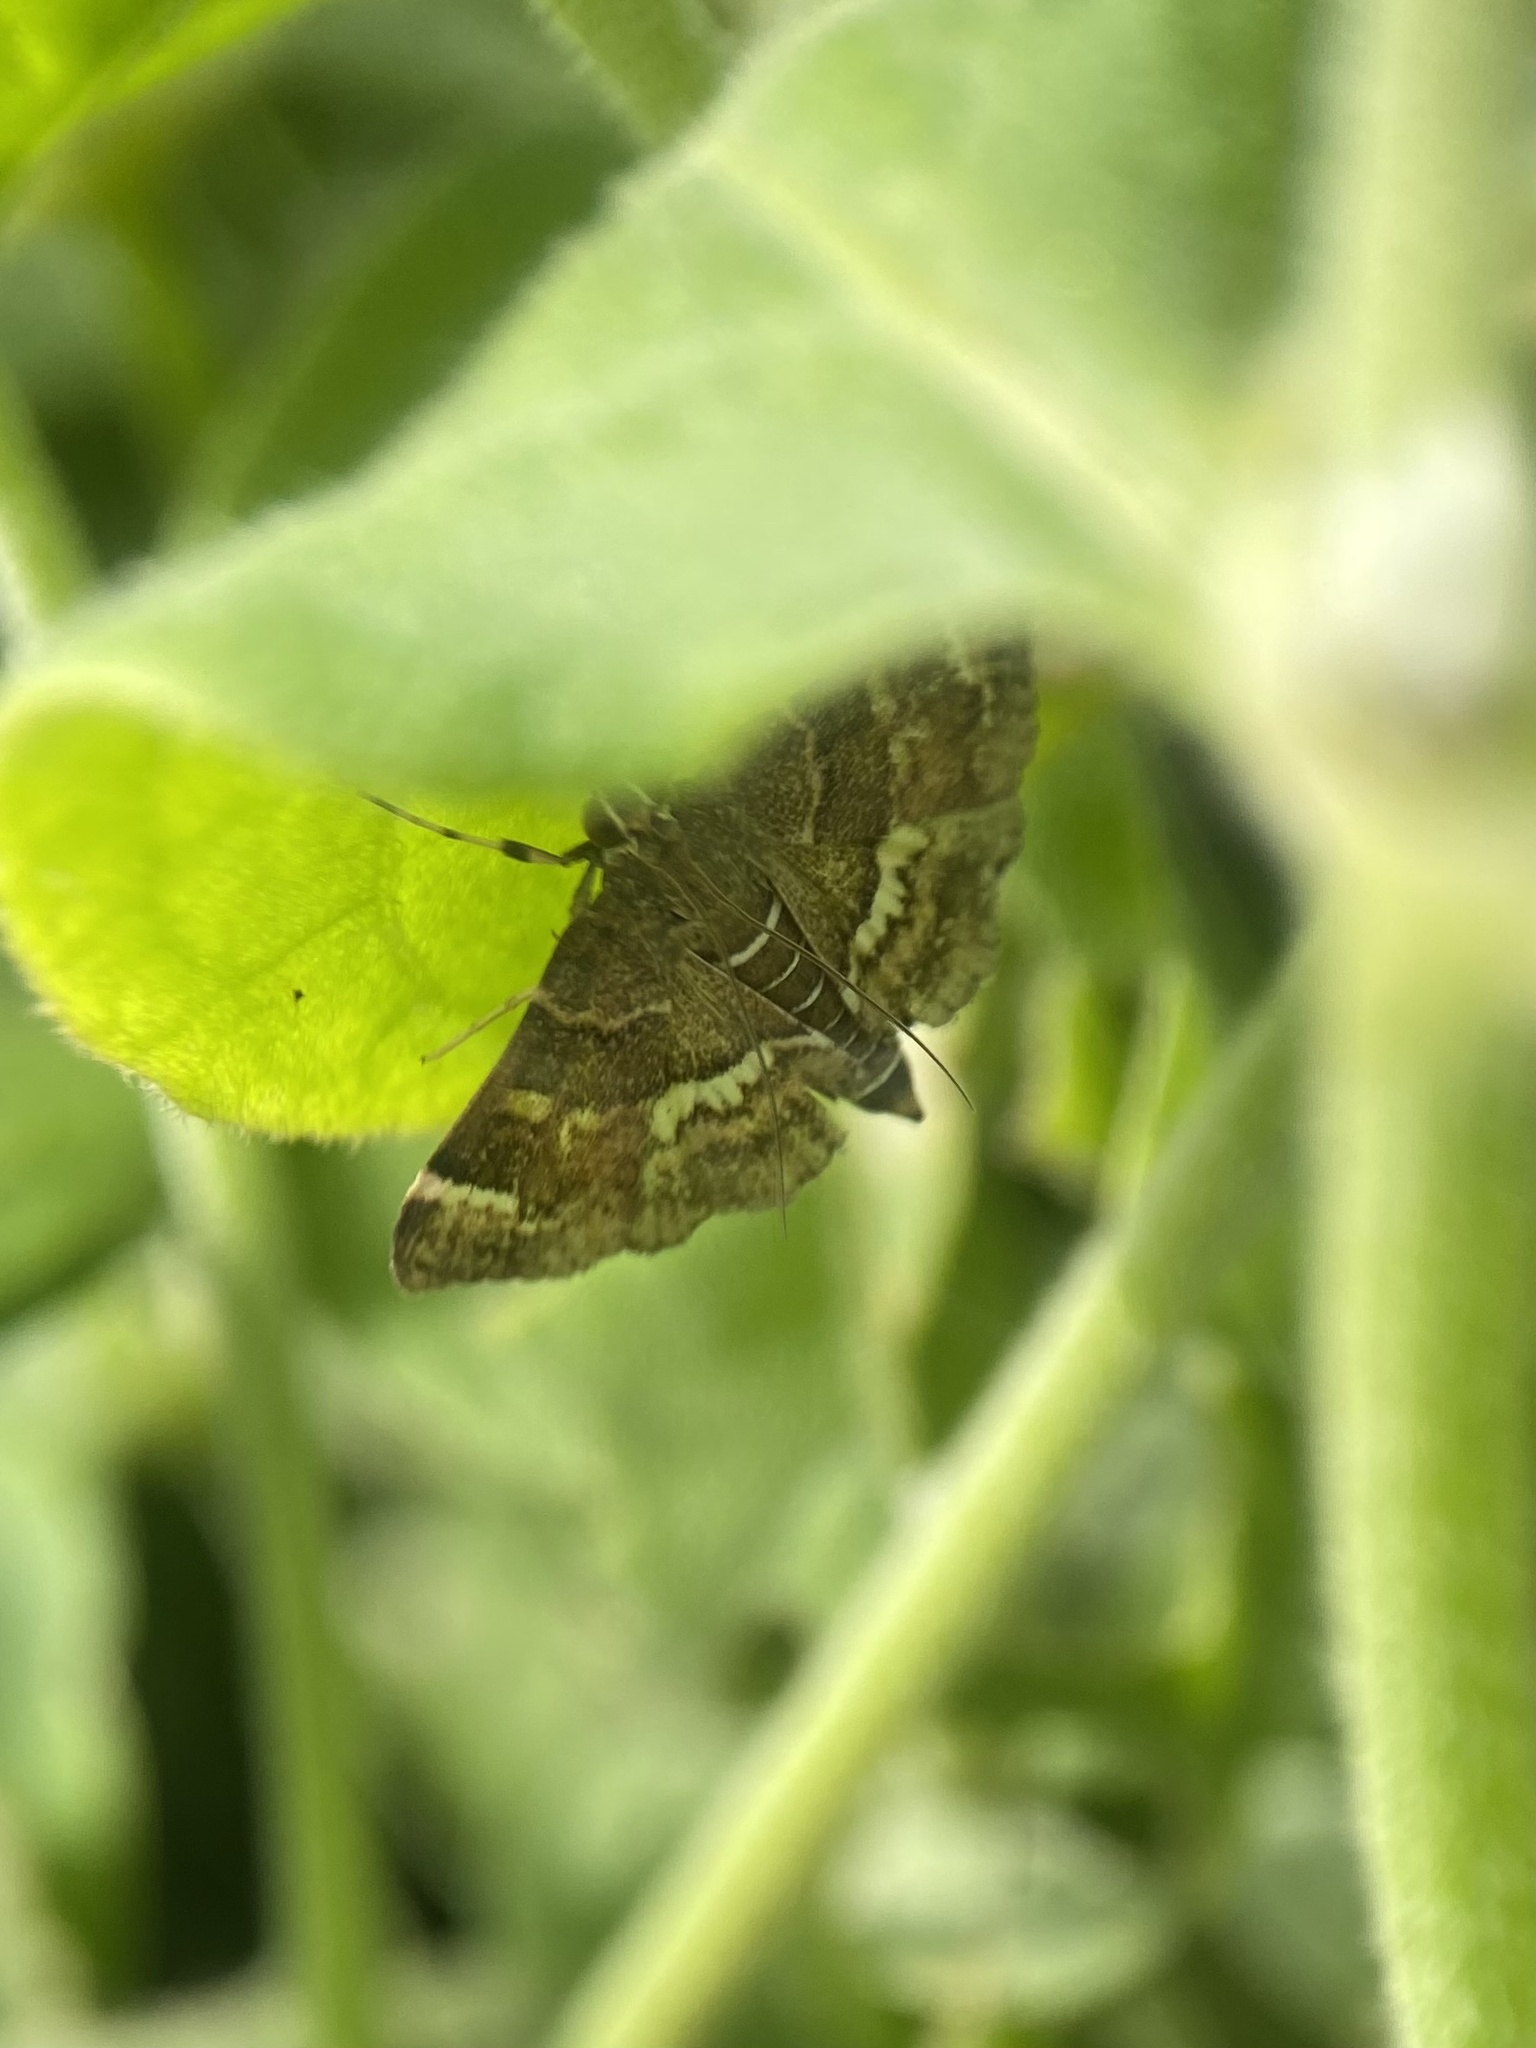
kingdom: Animalia
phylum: Arthropoda
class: Insecta
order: Lepidoptera
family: Crambidae
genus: Hymenia
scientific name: Hymenia perspectalis
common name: Spotted beet webworm
